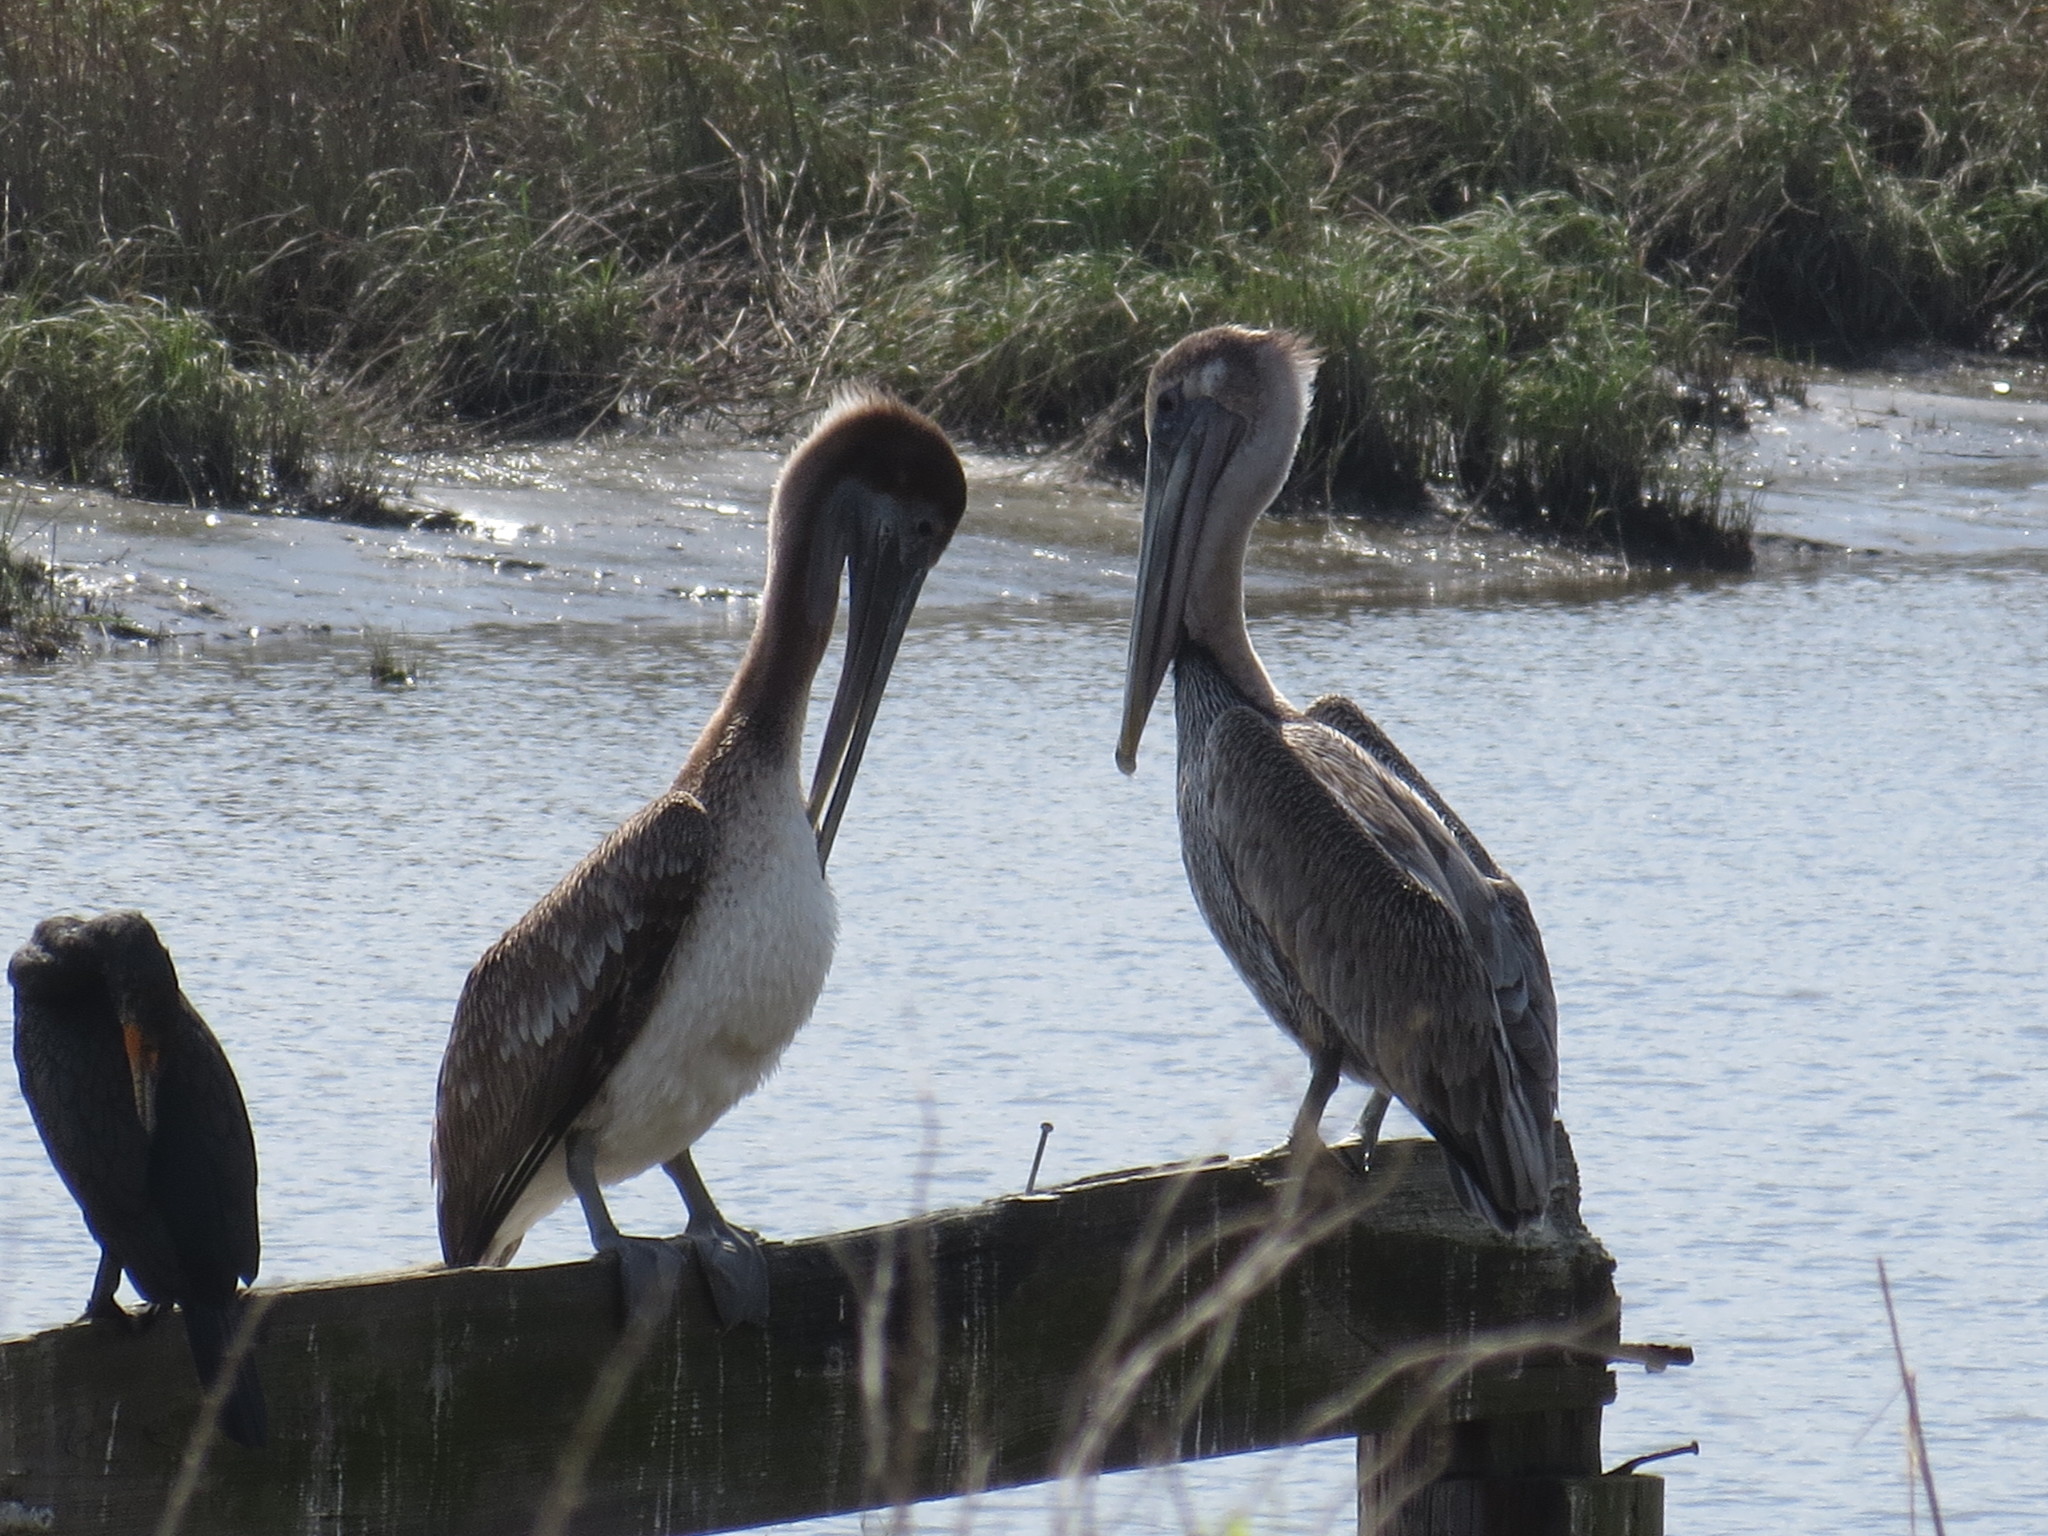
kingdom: Animalia
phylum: Chordata
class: Aves
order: Pelecaniformes
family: Pelecanidae
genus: Pelecanus
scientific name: Pelecanus occidentalis
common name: Brown pelican
